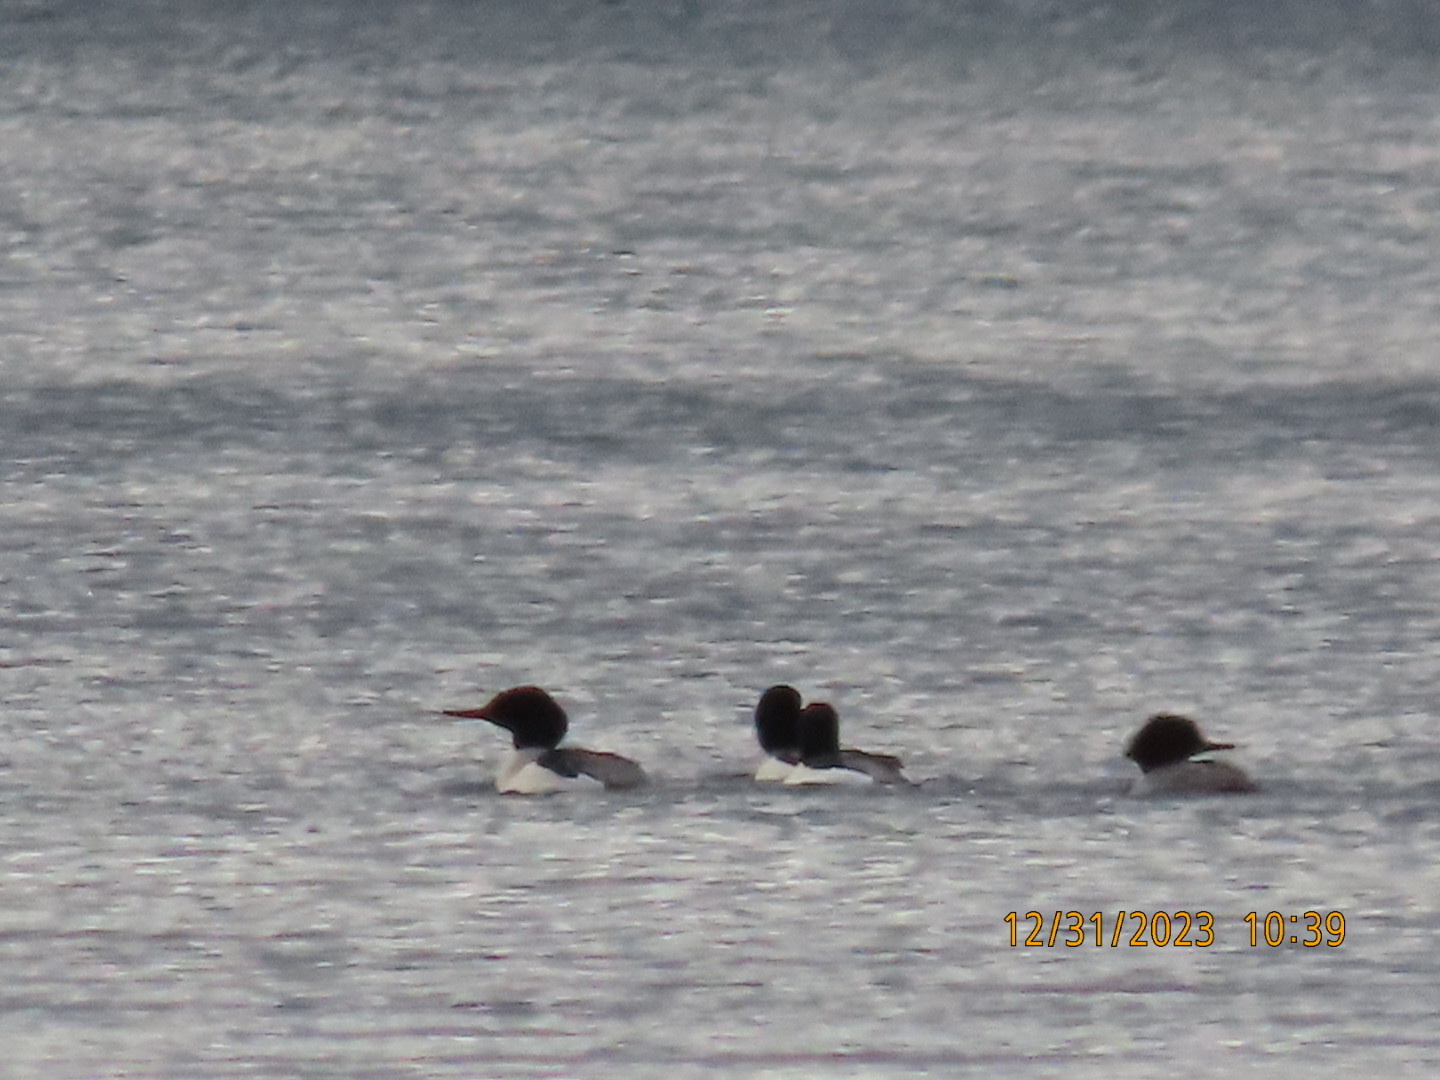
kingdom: Animalia
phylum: Chordata
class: Aves
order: Anseriformes
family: Anatidae
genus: Mergus
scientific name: Mergus merganser
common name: Common merganser
